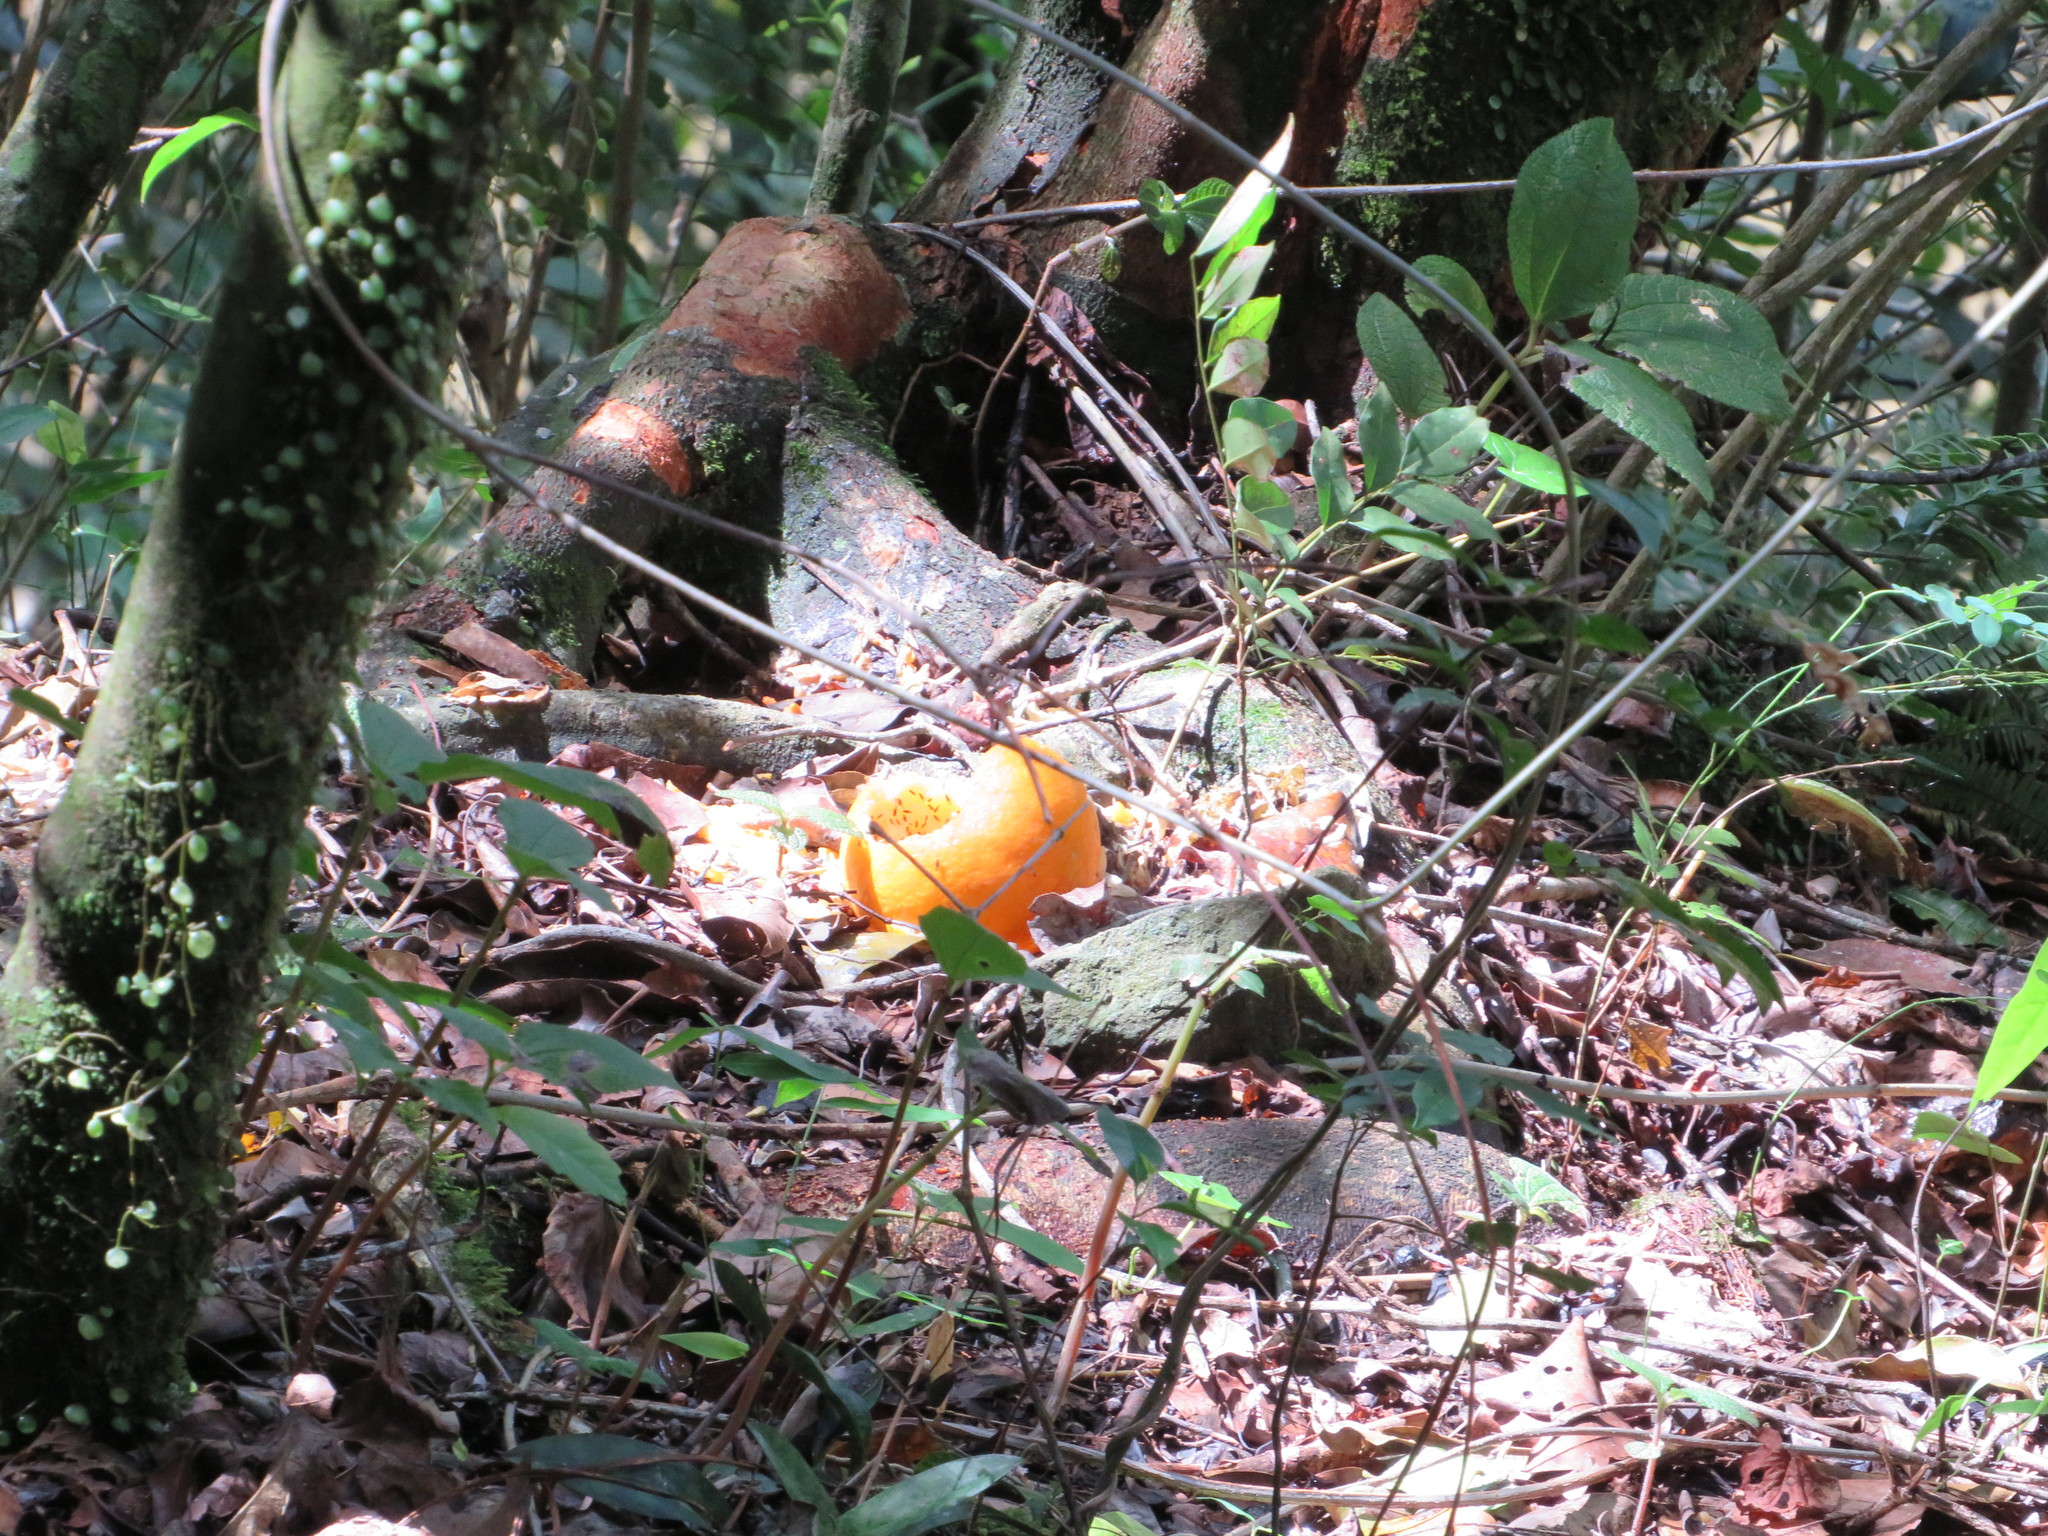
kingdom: Plantae
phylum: Tracheophyta
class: Magnoliopsida
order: Sapindales
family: Rutaceae
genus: Citrus
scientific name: Citrus aurantium
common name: Sour orange
